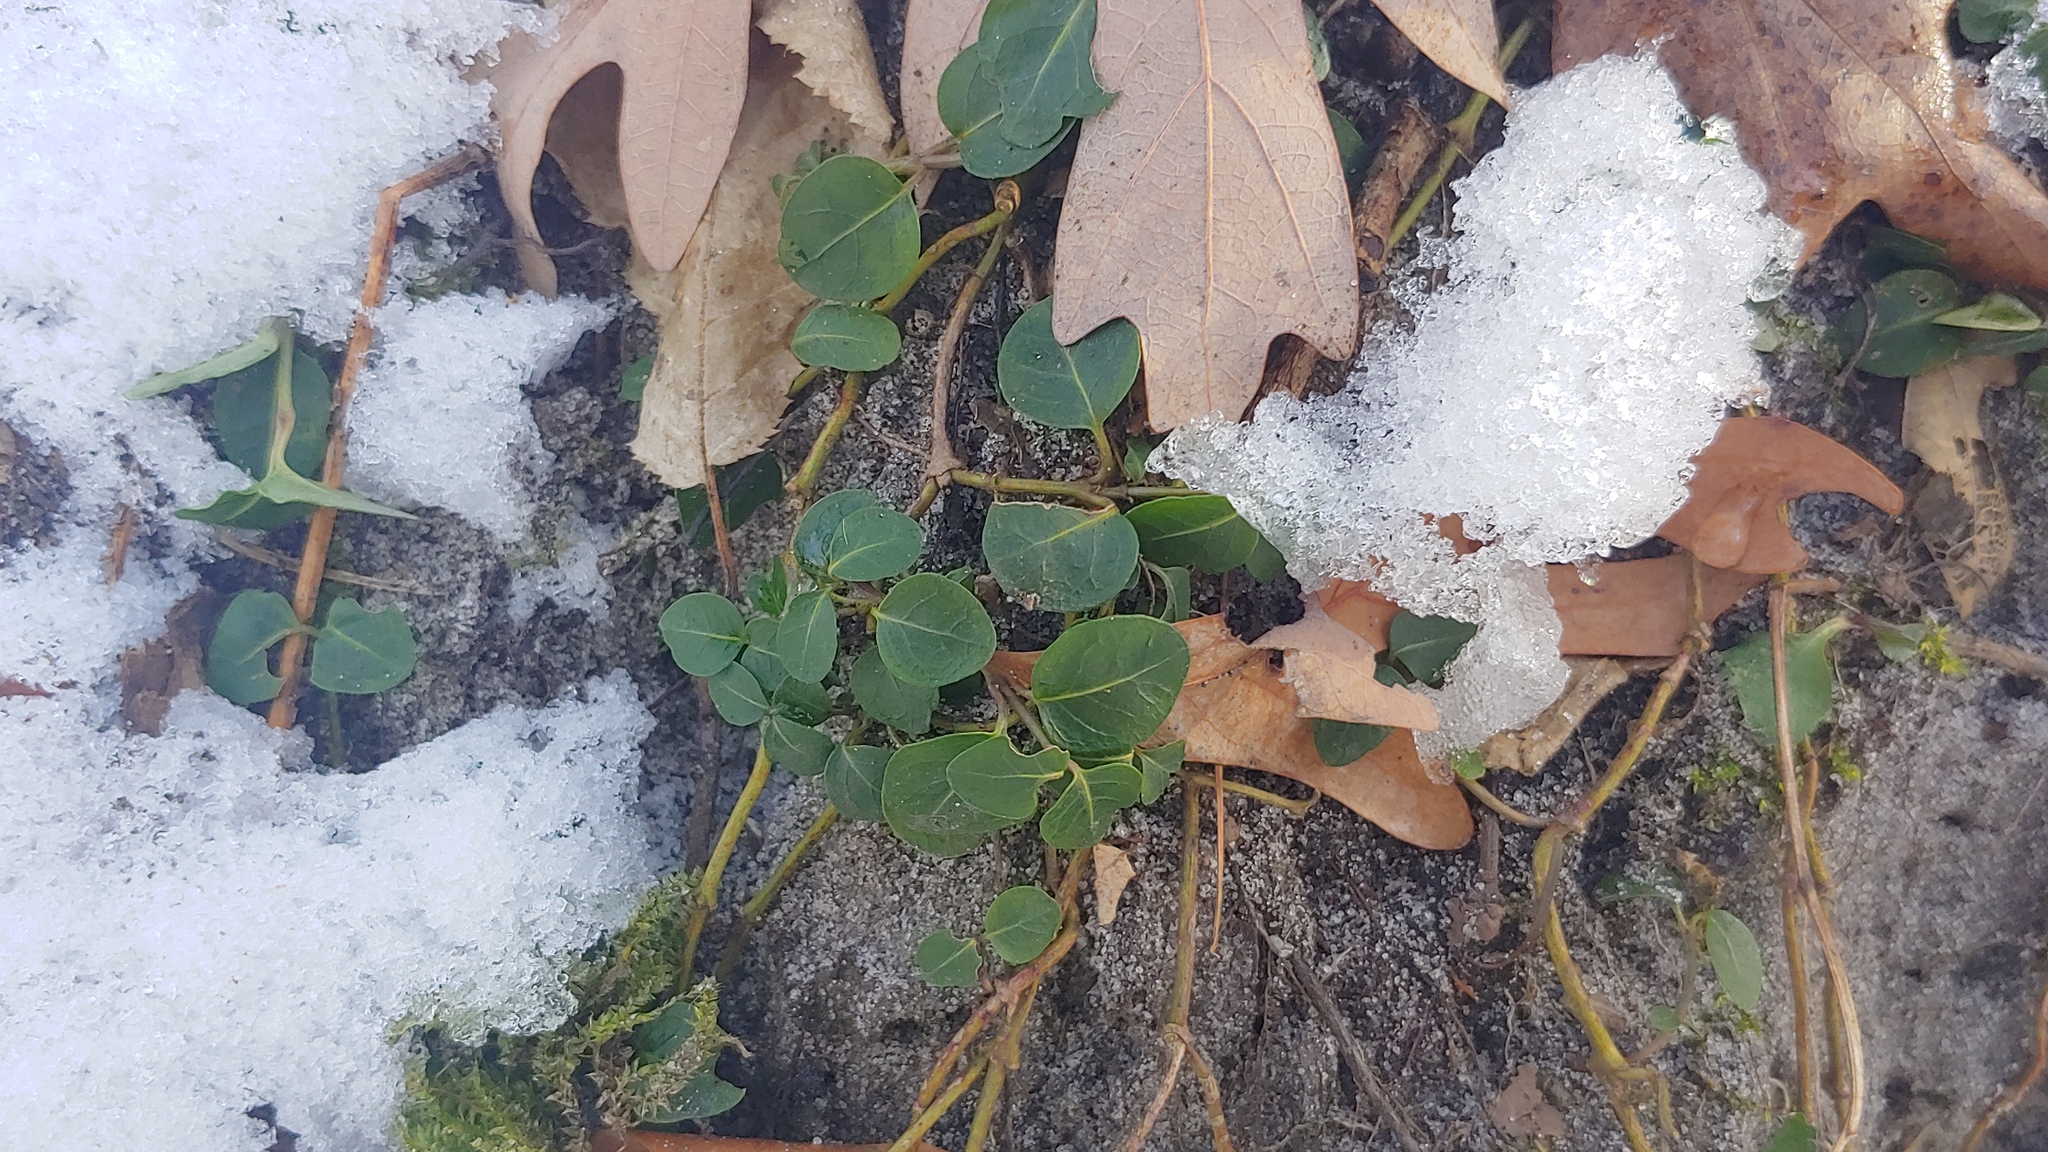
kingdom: Plantae
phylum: Tracheophyta
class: Magnoliopsida
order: Gentianales
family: Rubiaceae
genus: Mitchella
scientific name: Mitchella repens
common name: Partridge-berry
